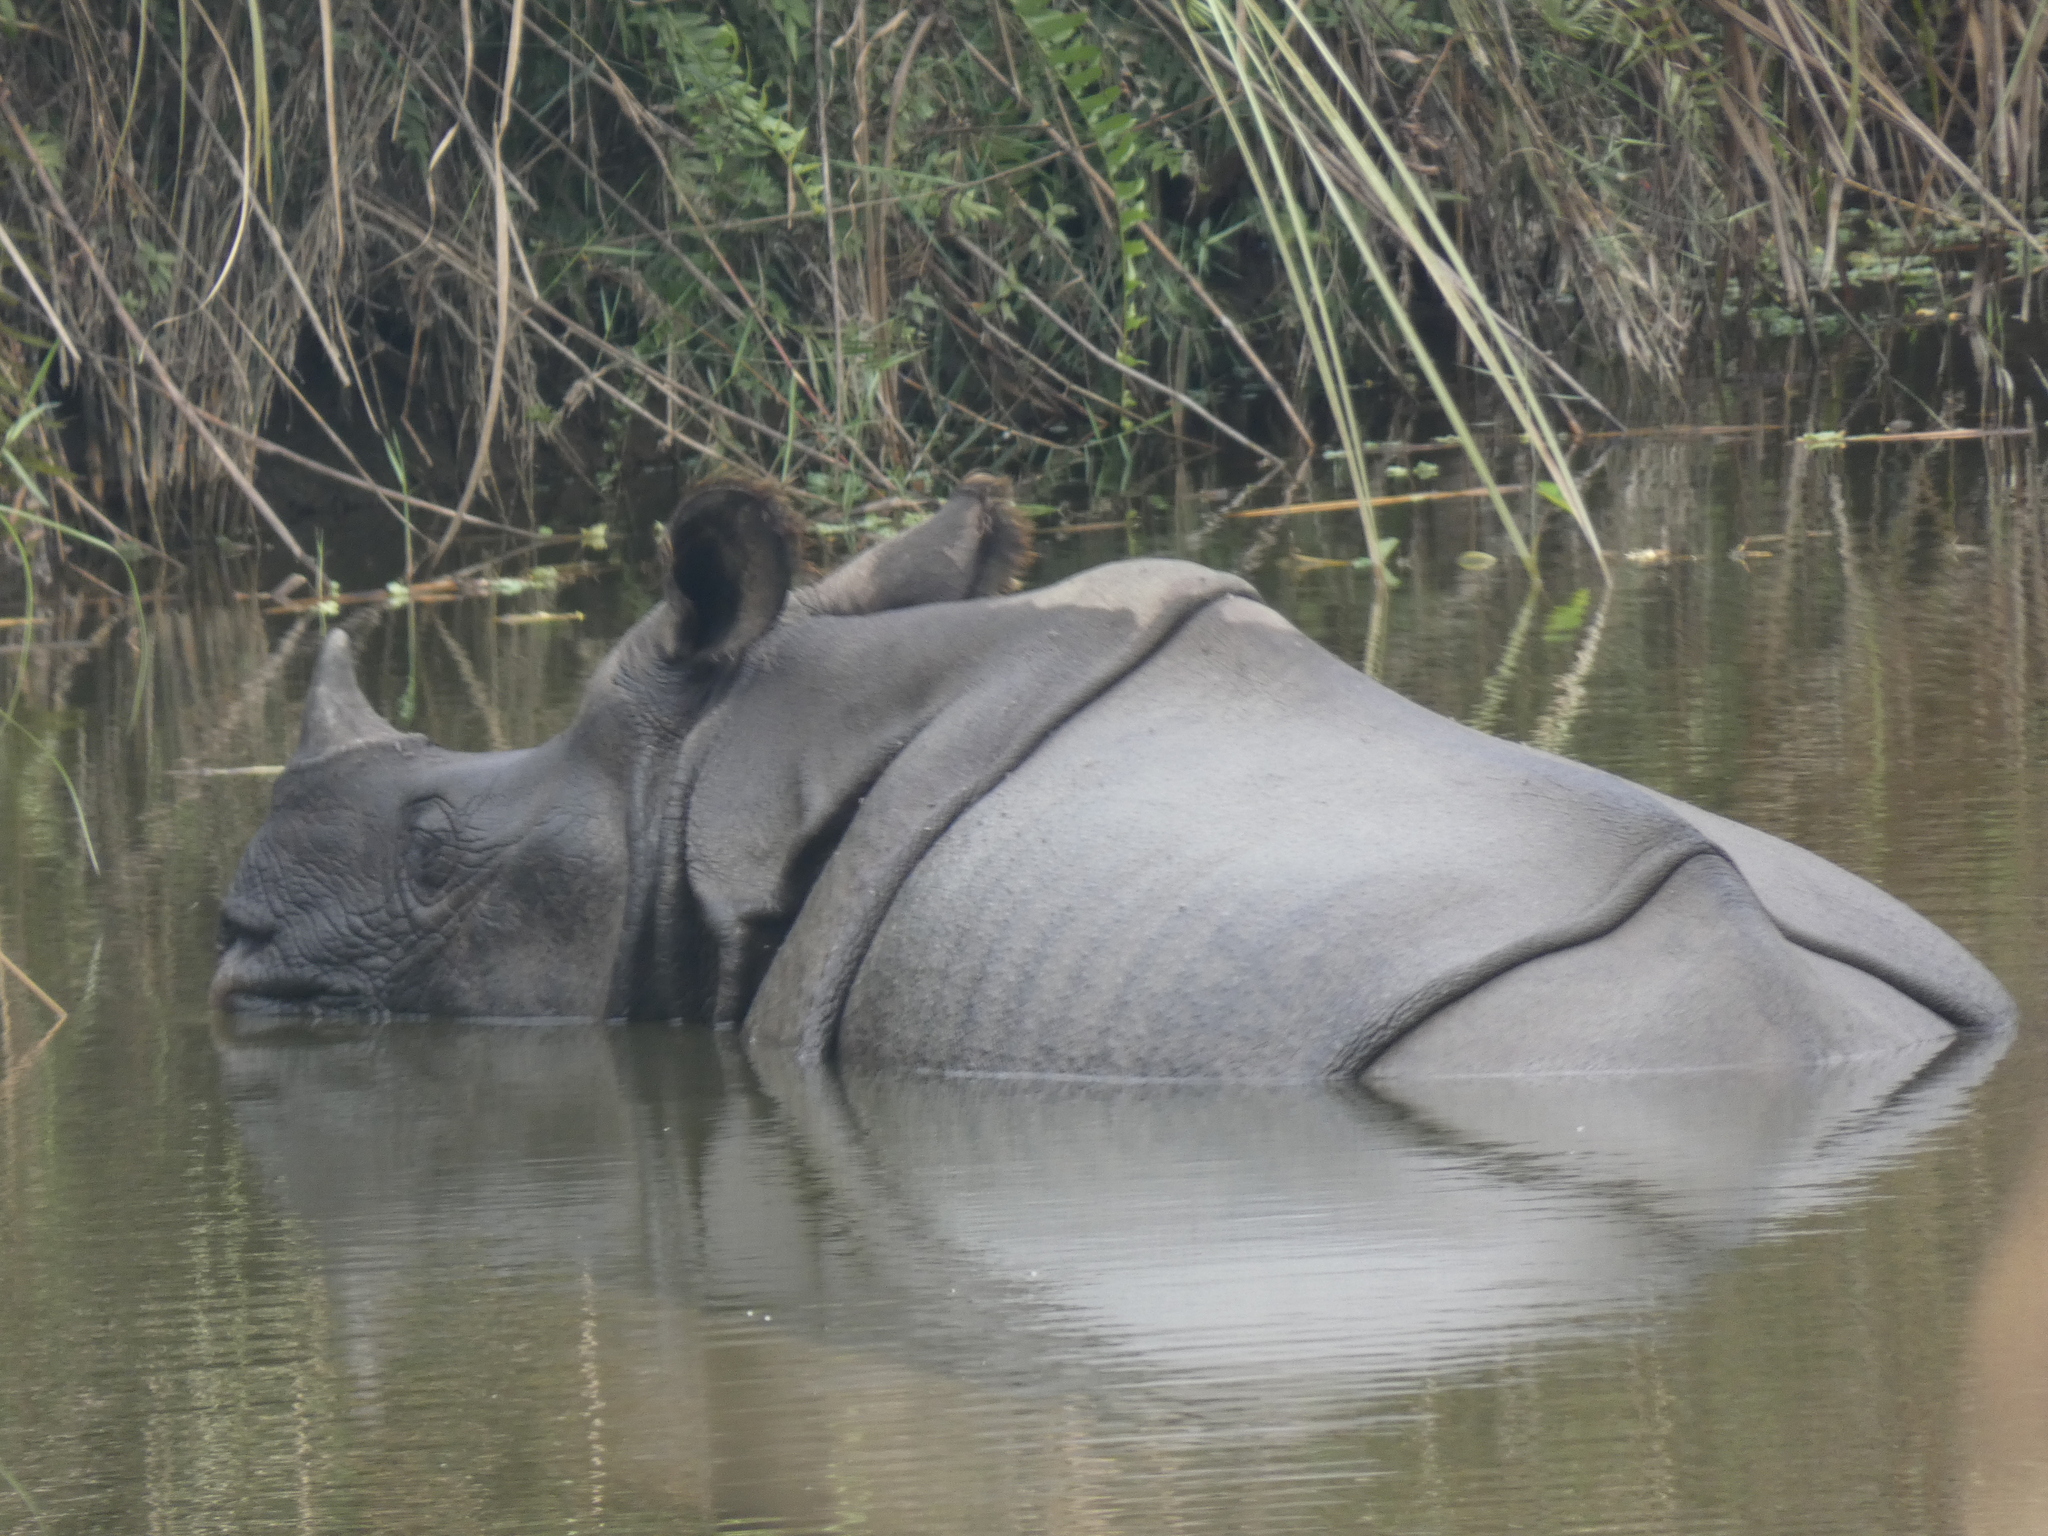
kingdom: Animalia
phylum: Chordata
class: Mammalia
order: Perissodactyla
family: Rhinocerotidae
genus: Rhinoceros
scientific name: Rhinoceros unicornis
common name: Indian rhinoceros
